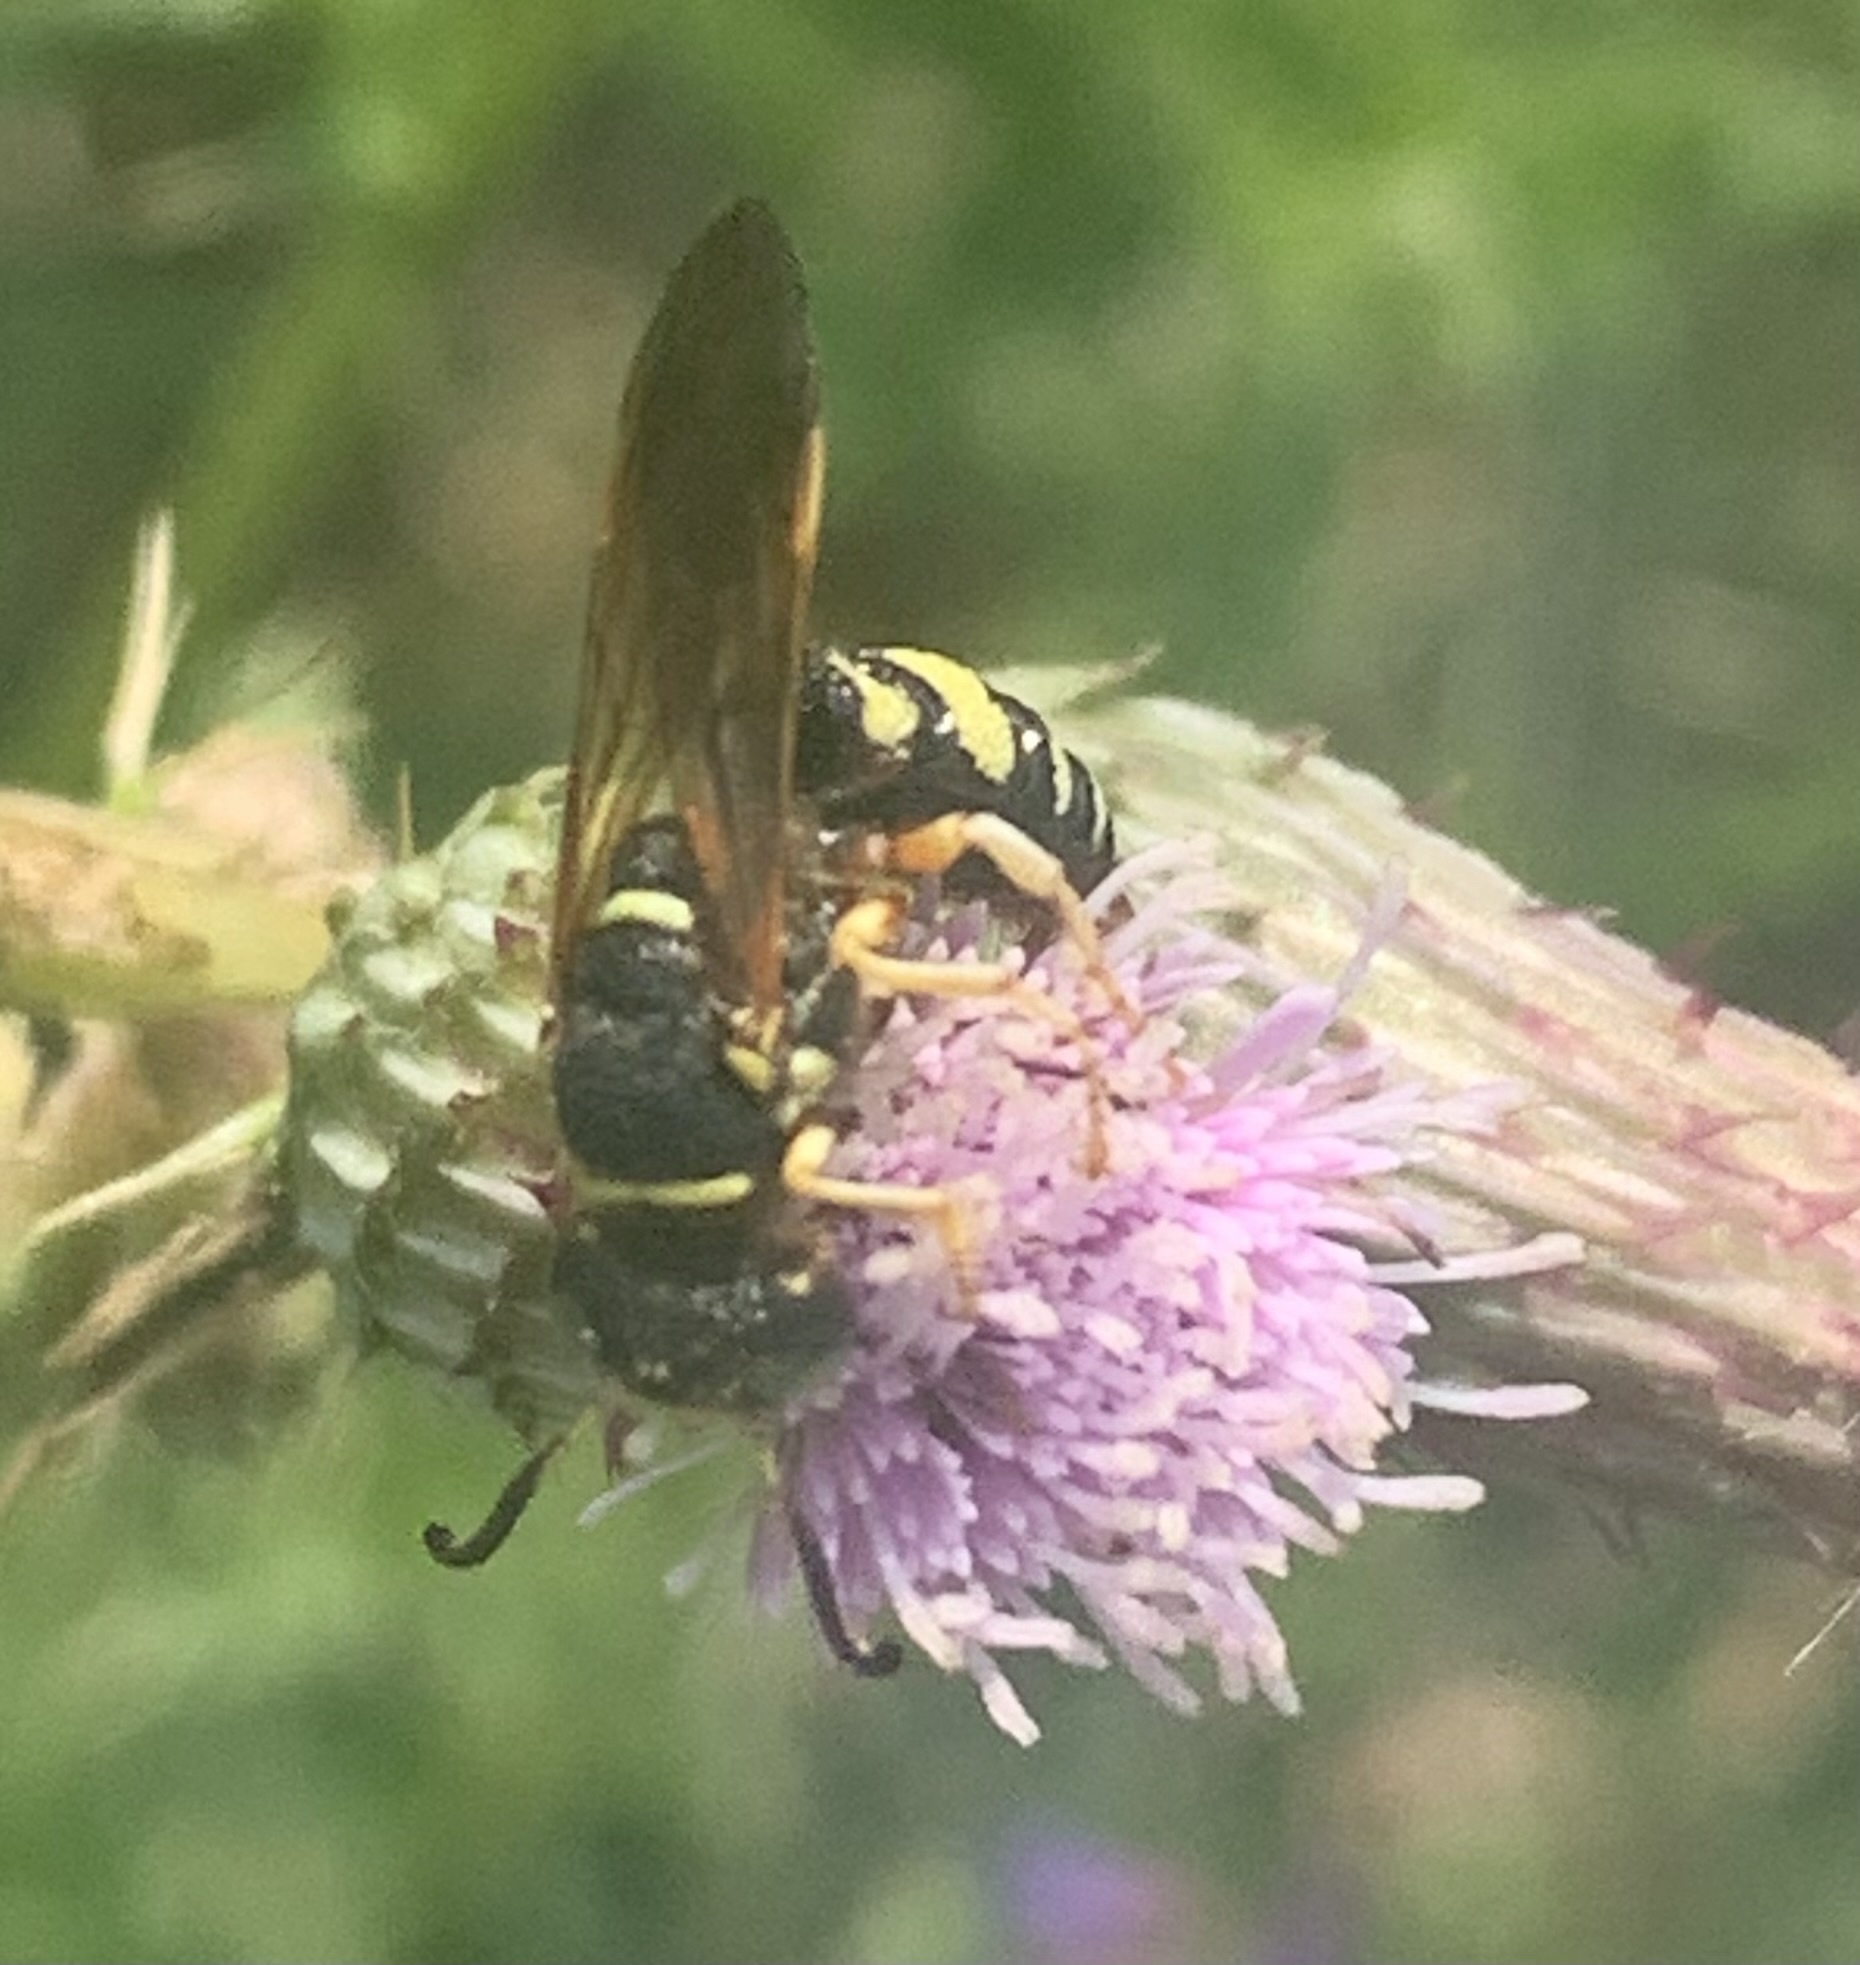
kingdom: Animalia
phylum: Arthropoda
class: Insecta
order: Hymenoptera
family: Crabronidae
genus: Philanthus
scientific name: Philanthus ventilabris
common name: Bee-killer wasp
